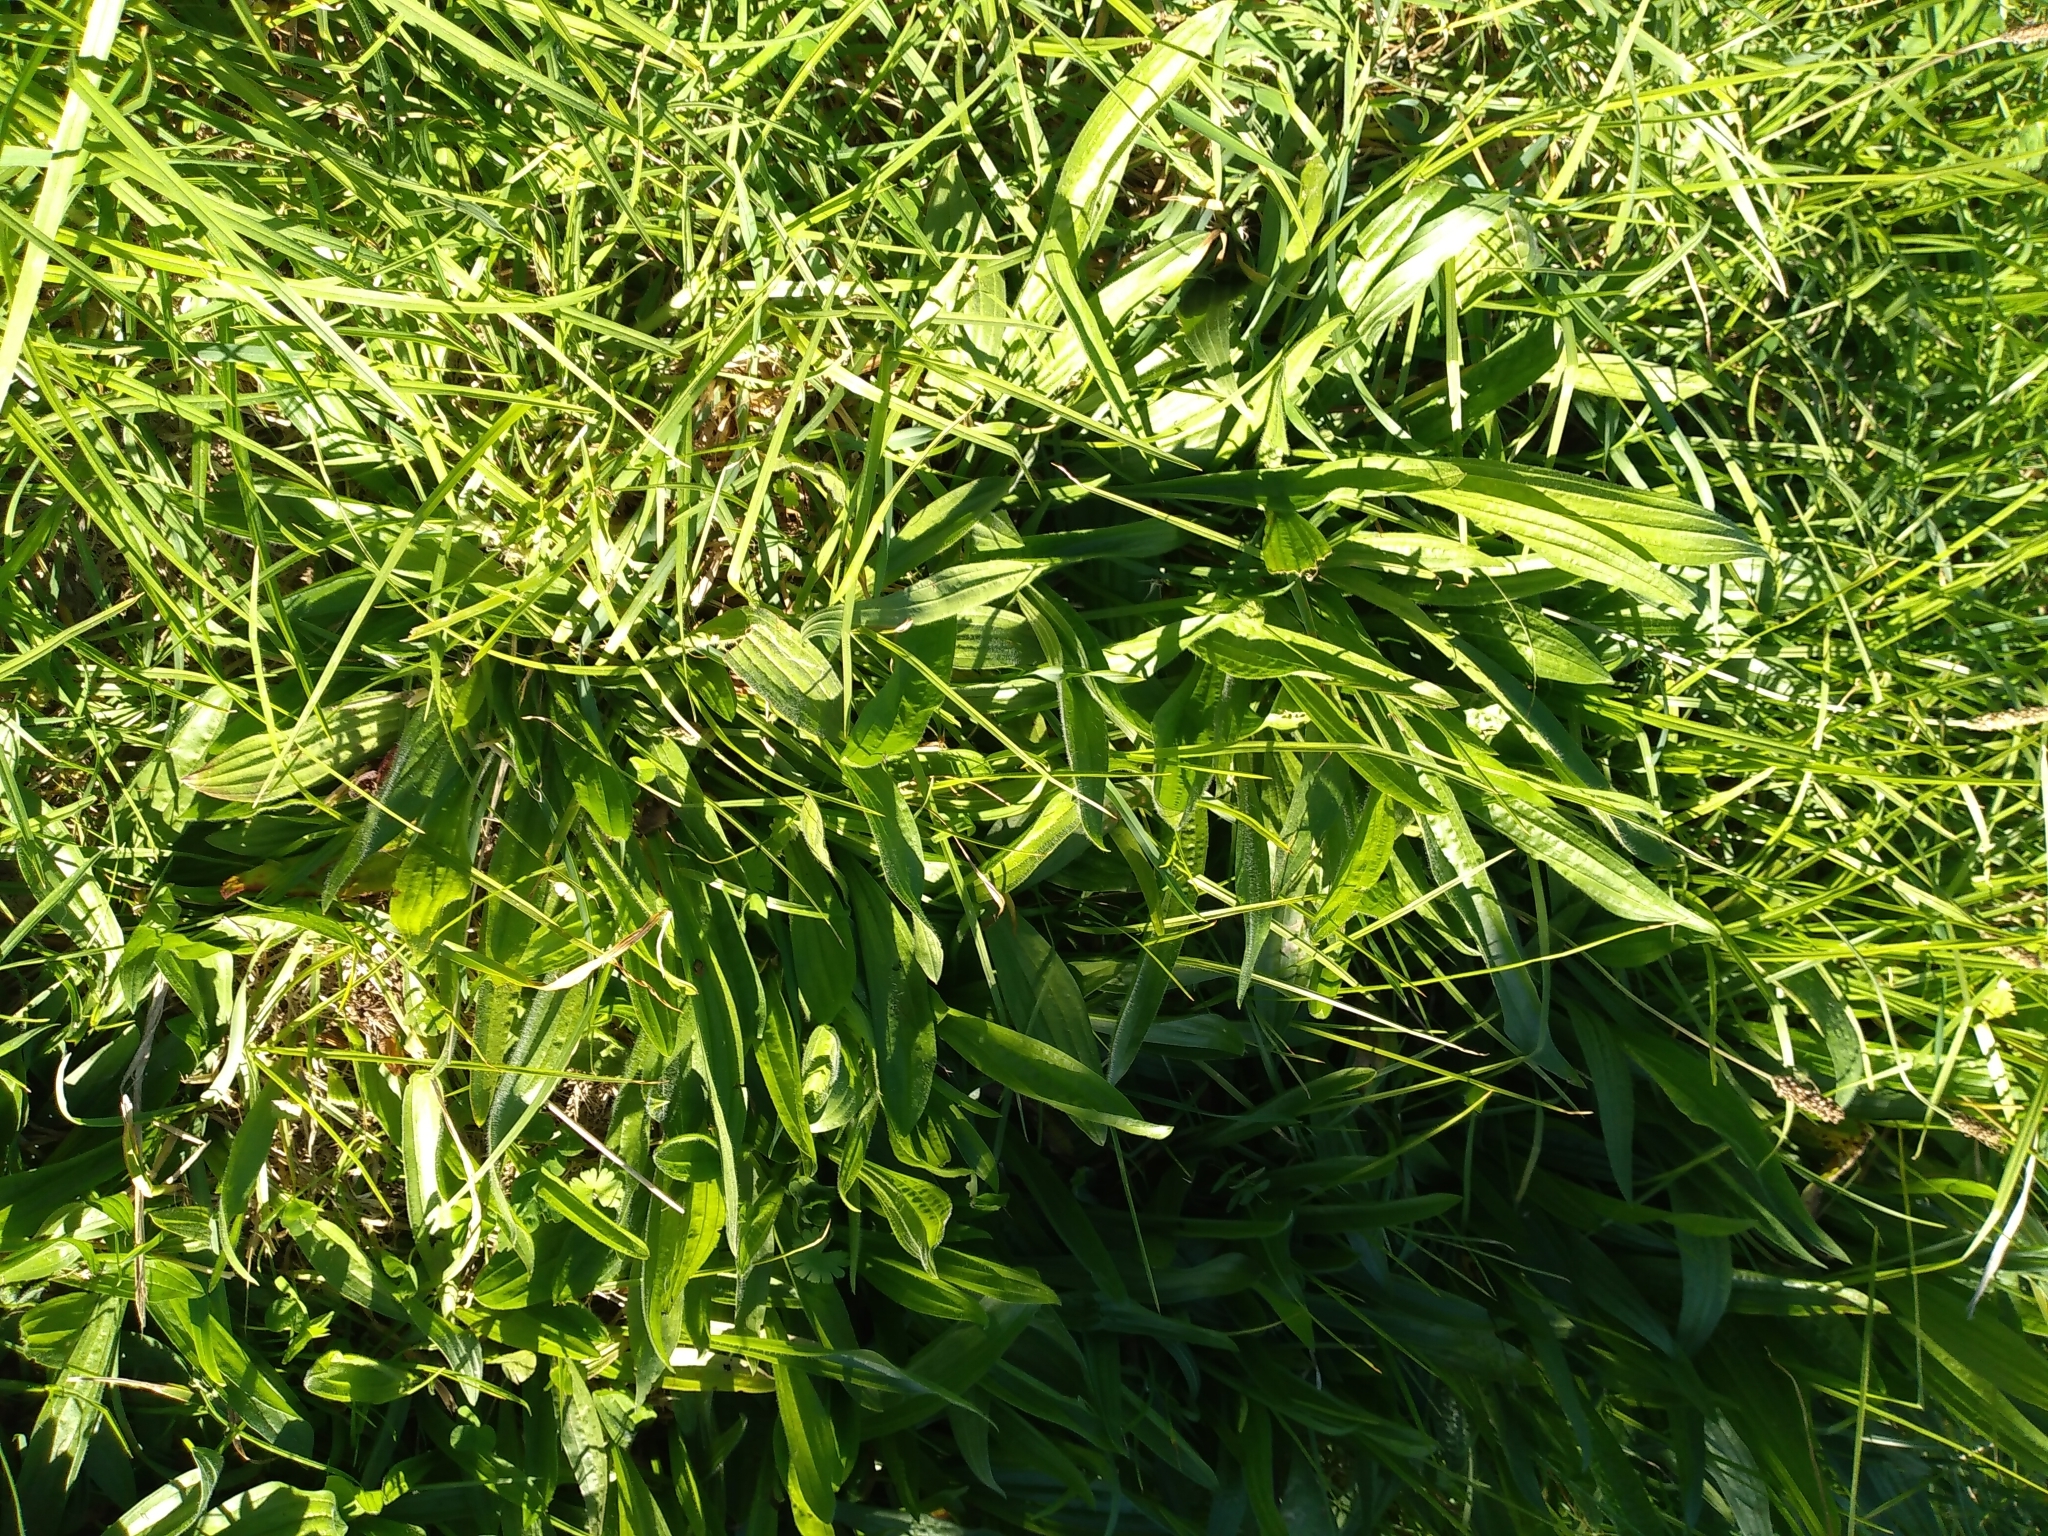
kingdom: Plantae
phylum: Tracheophyta
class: Magnoliopsida
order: Lamiales
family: Plantaginaceae
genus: Plantago
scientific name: Plantago lanceolata
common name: Ribwort plantain
